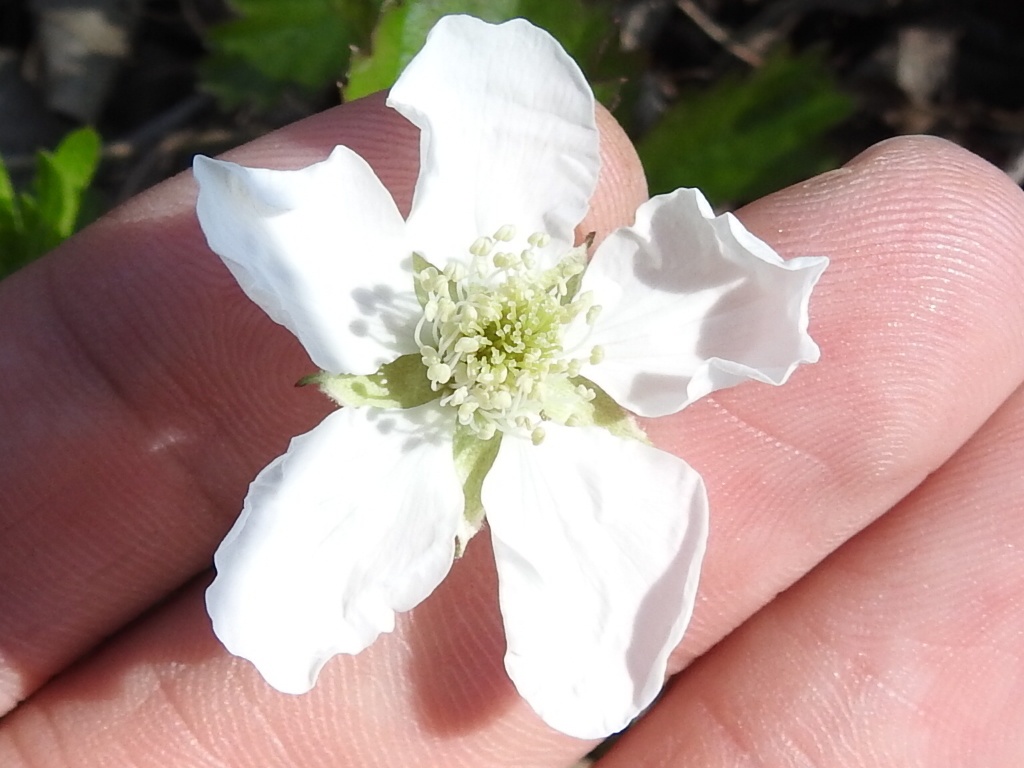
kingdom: Plantae
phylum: Tracheophyta
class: Magnoliopsida
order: Rosales
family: Rosaceae
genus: Rubus
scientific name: Rubus trivialis
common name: Southern dewberry
